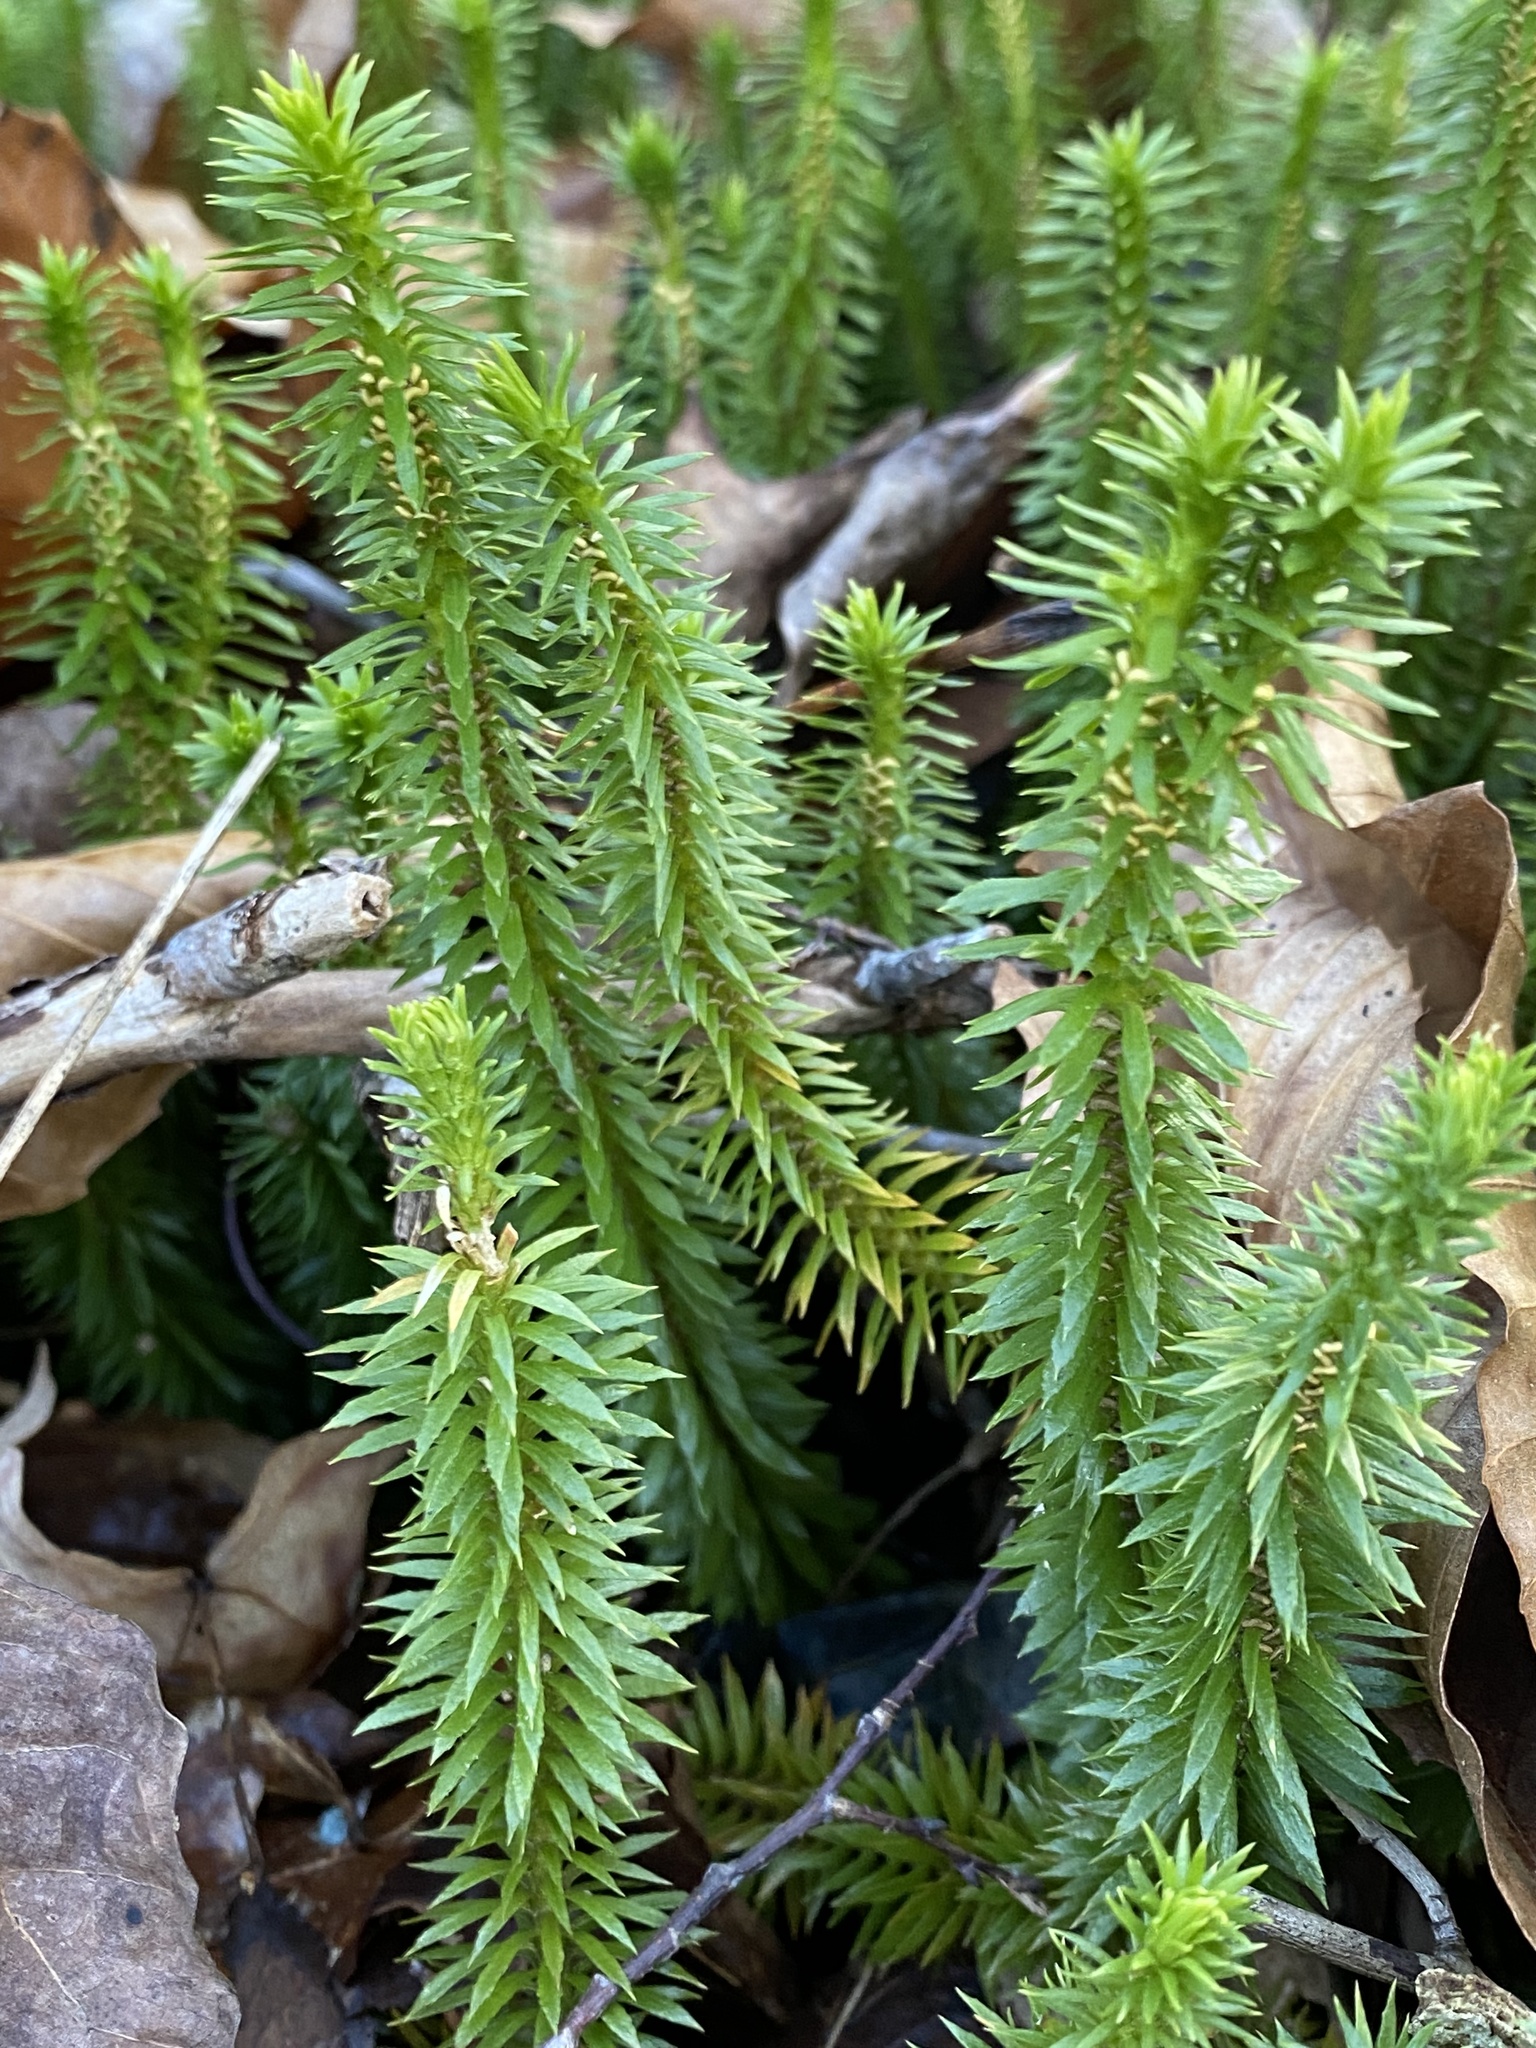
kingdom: Plantae
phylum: Tracheophyta
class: Lycopodiopsida
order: Lycopodiales
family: Lycopodiaceae
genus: Huperzia
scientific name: Huperzia lucidula
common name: Shining clubmoss
